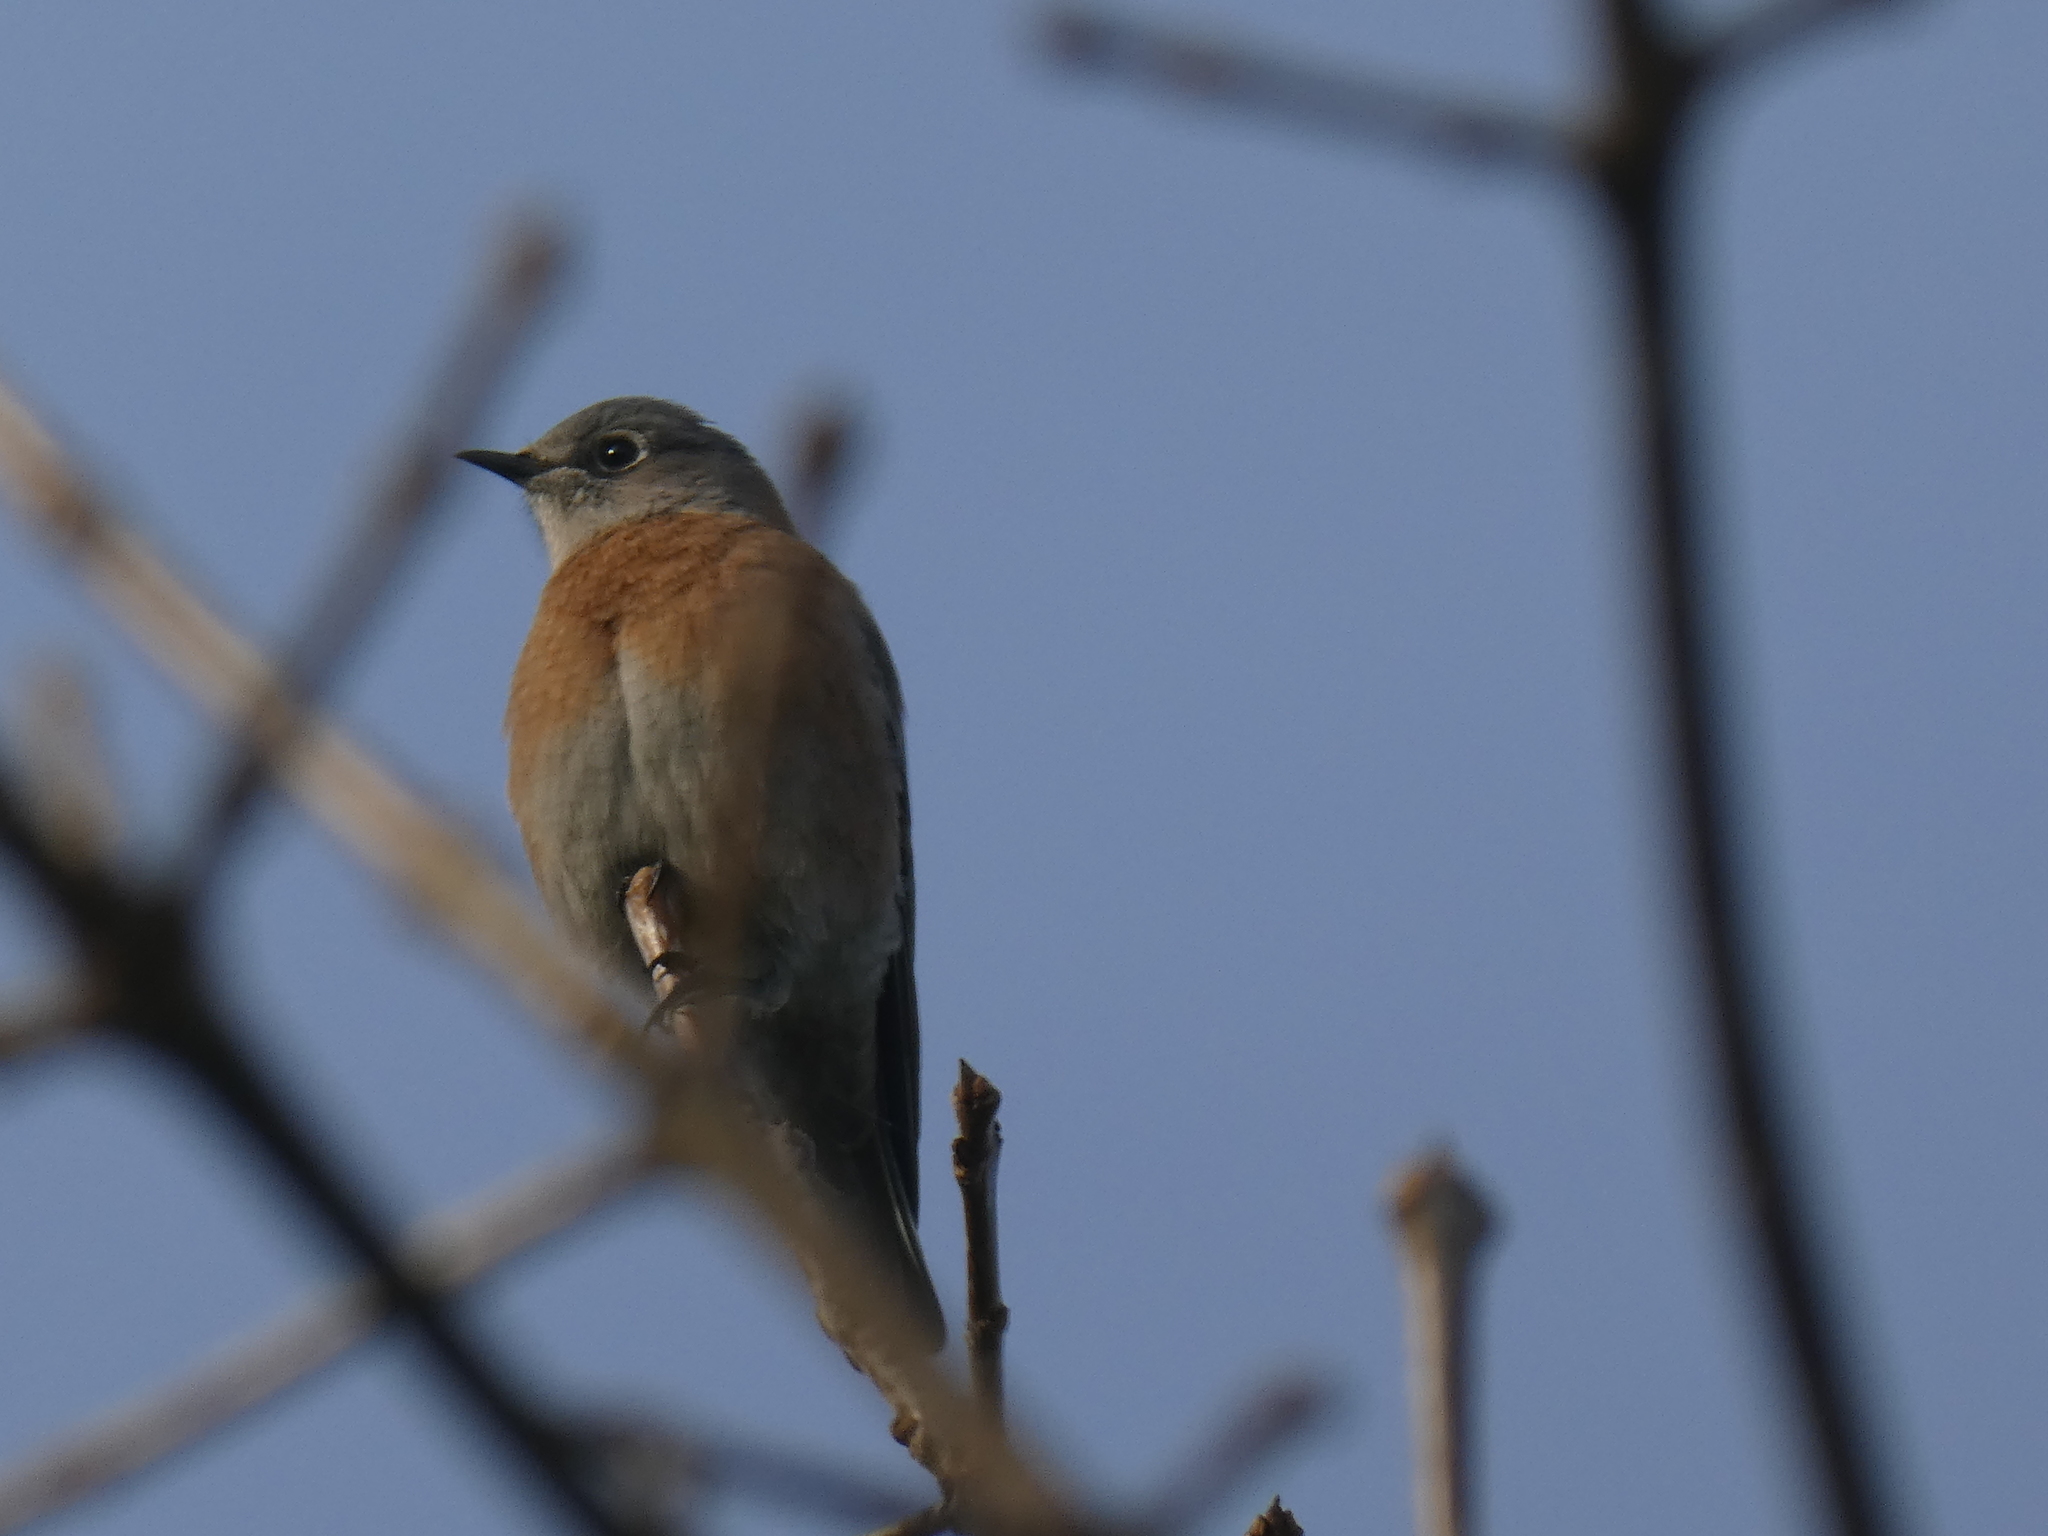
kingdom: Animalia
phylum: Chordata
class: Aves
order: Passeriformes
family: Turdidae
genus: Sialia
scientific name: Sialia mexicana
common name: Western bluebird
